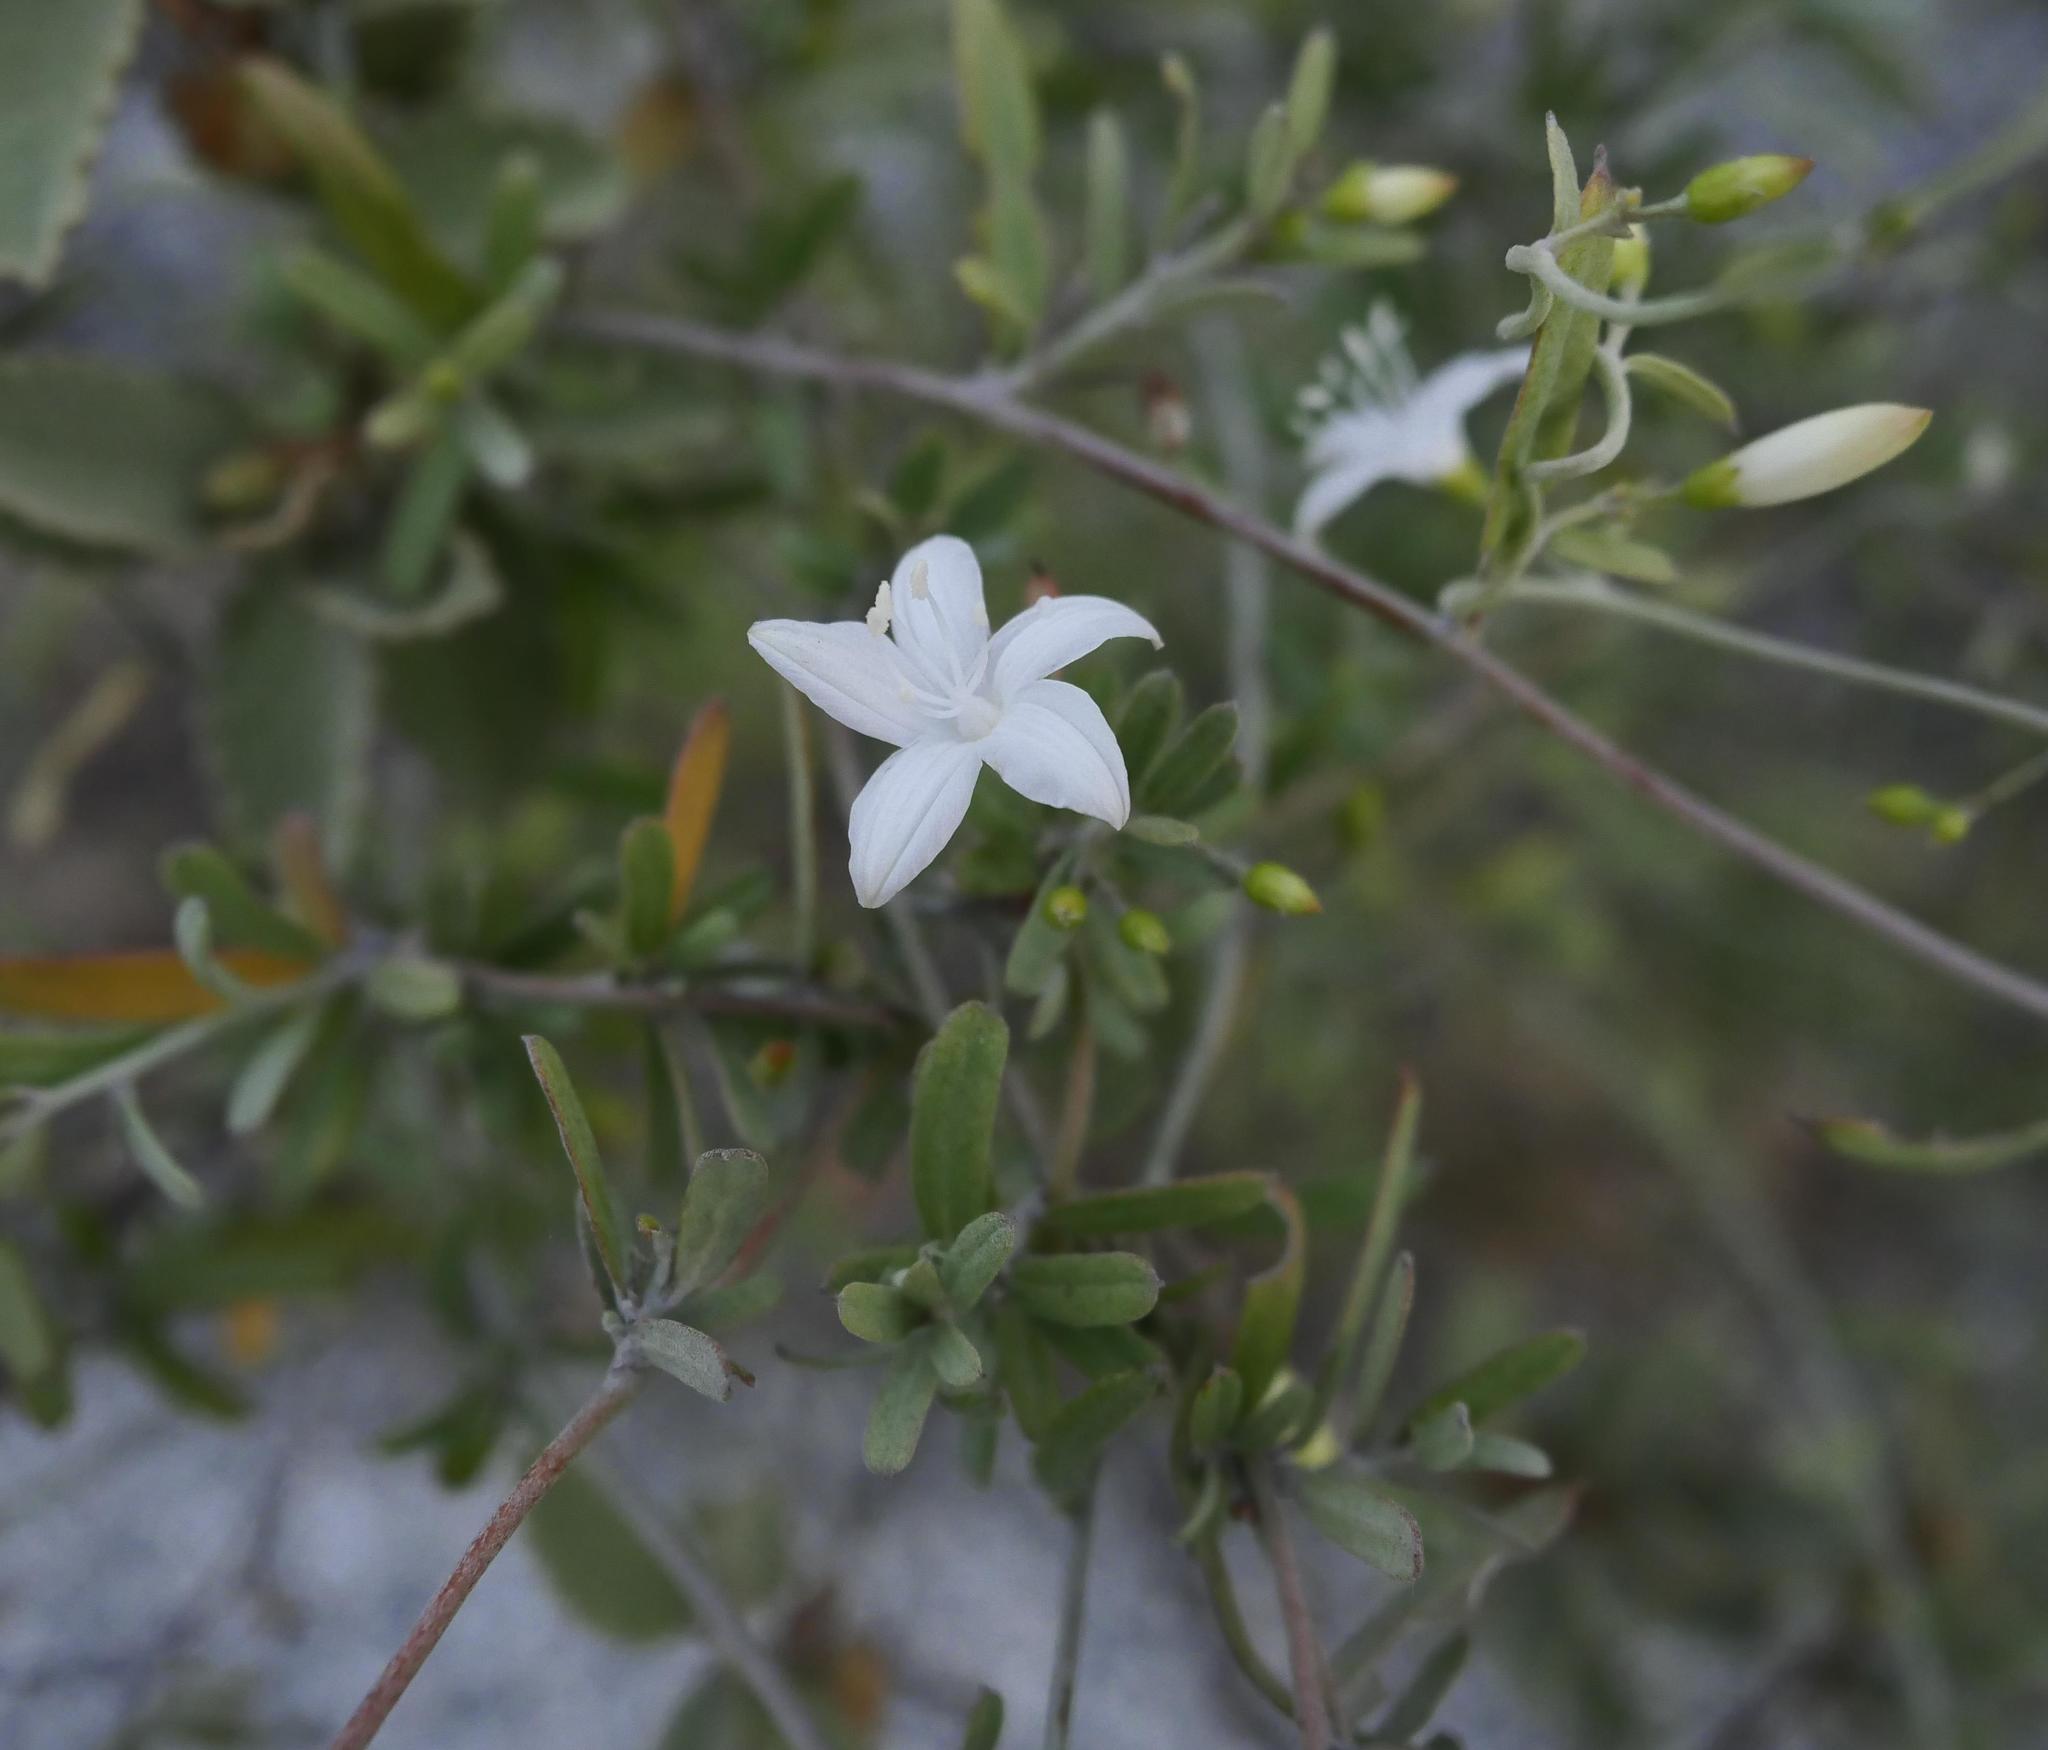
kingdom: Plantae
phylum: Tracheophyta
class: Magnoliopsida
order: Solanales
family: Convolvulaceae
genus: Jacquemontia
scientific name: Jacquemontia curtissii
